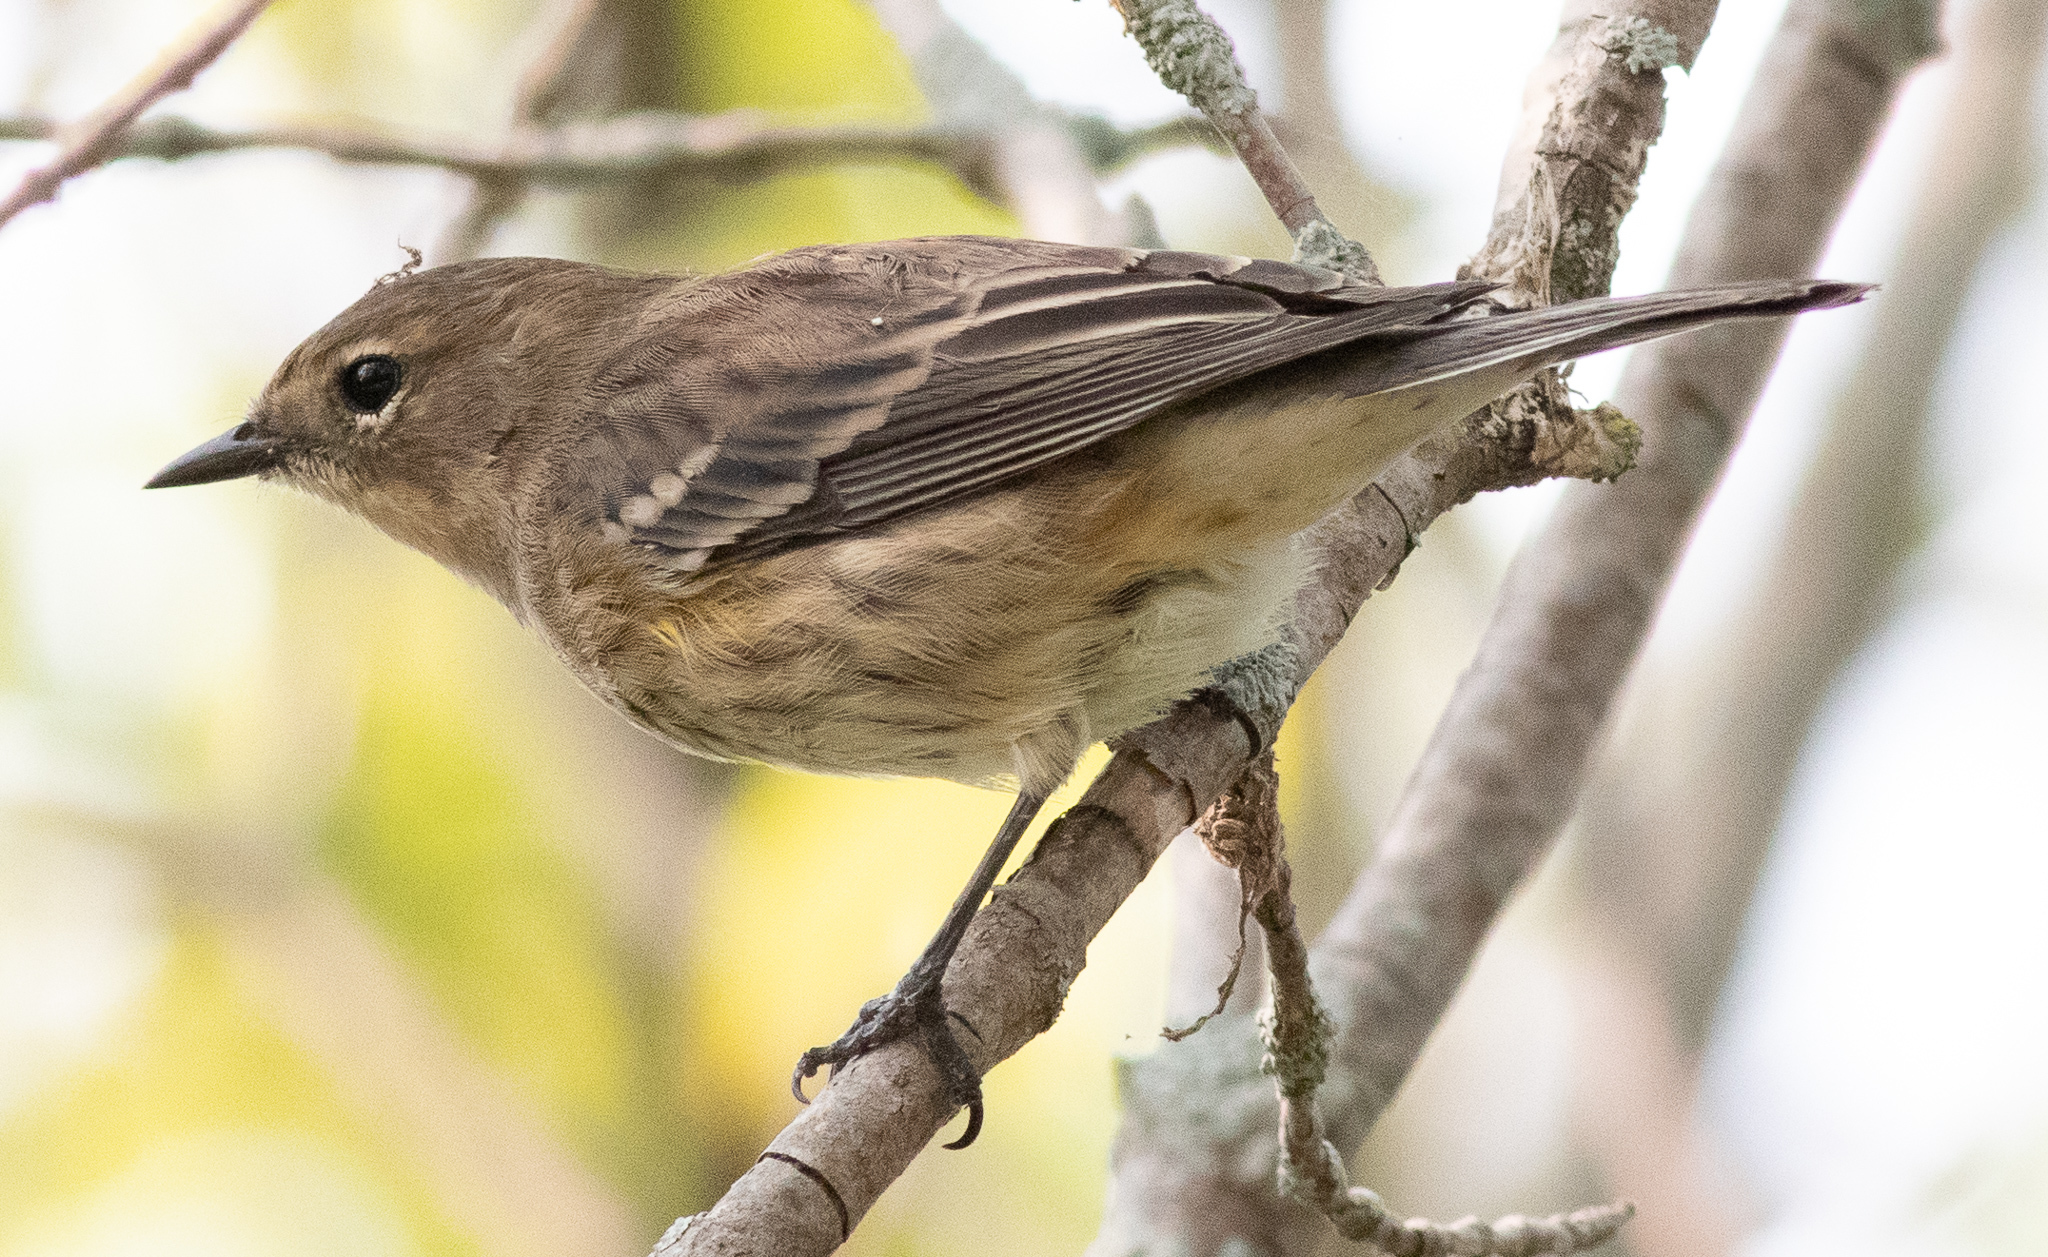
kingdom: Animalia
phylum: Chordata
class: Aves
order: Passeriformes
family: Parulidae
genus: Setophaga
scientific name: Setophaga coronata
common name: Myrtle warbler
